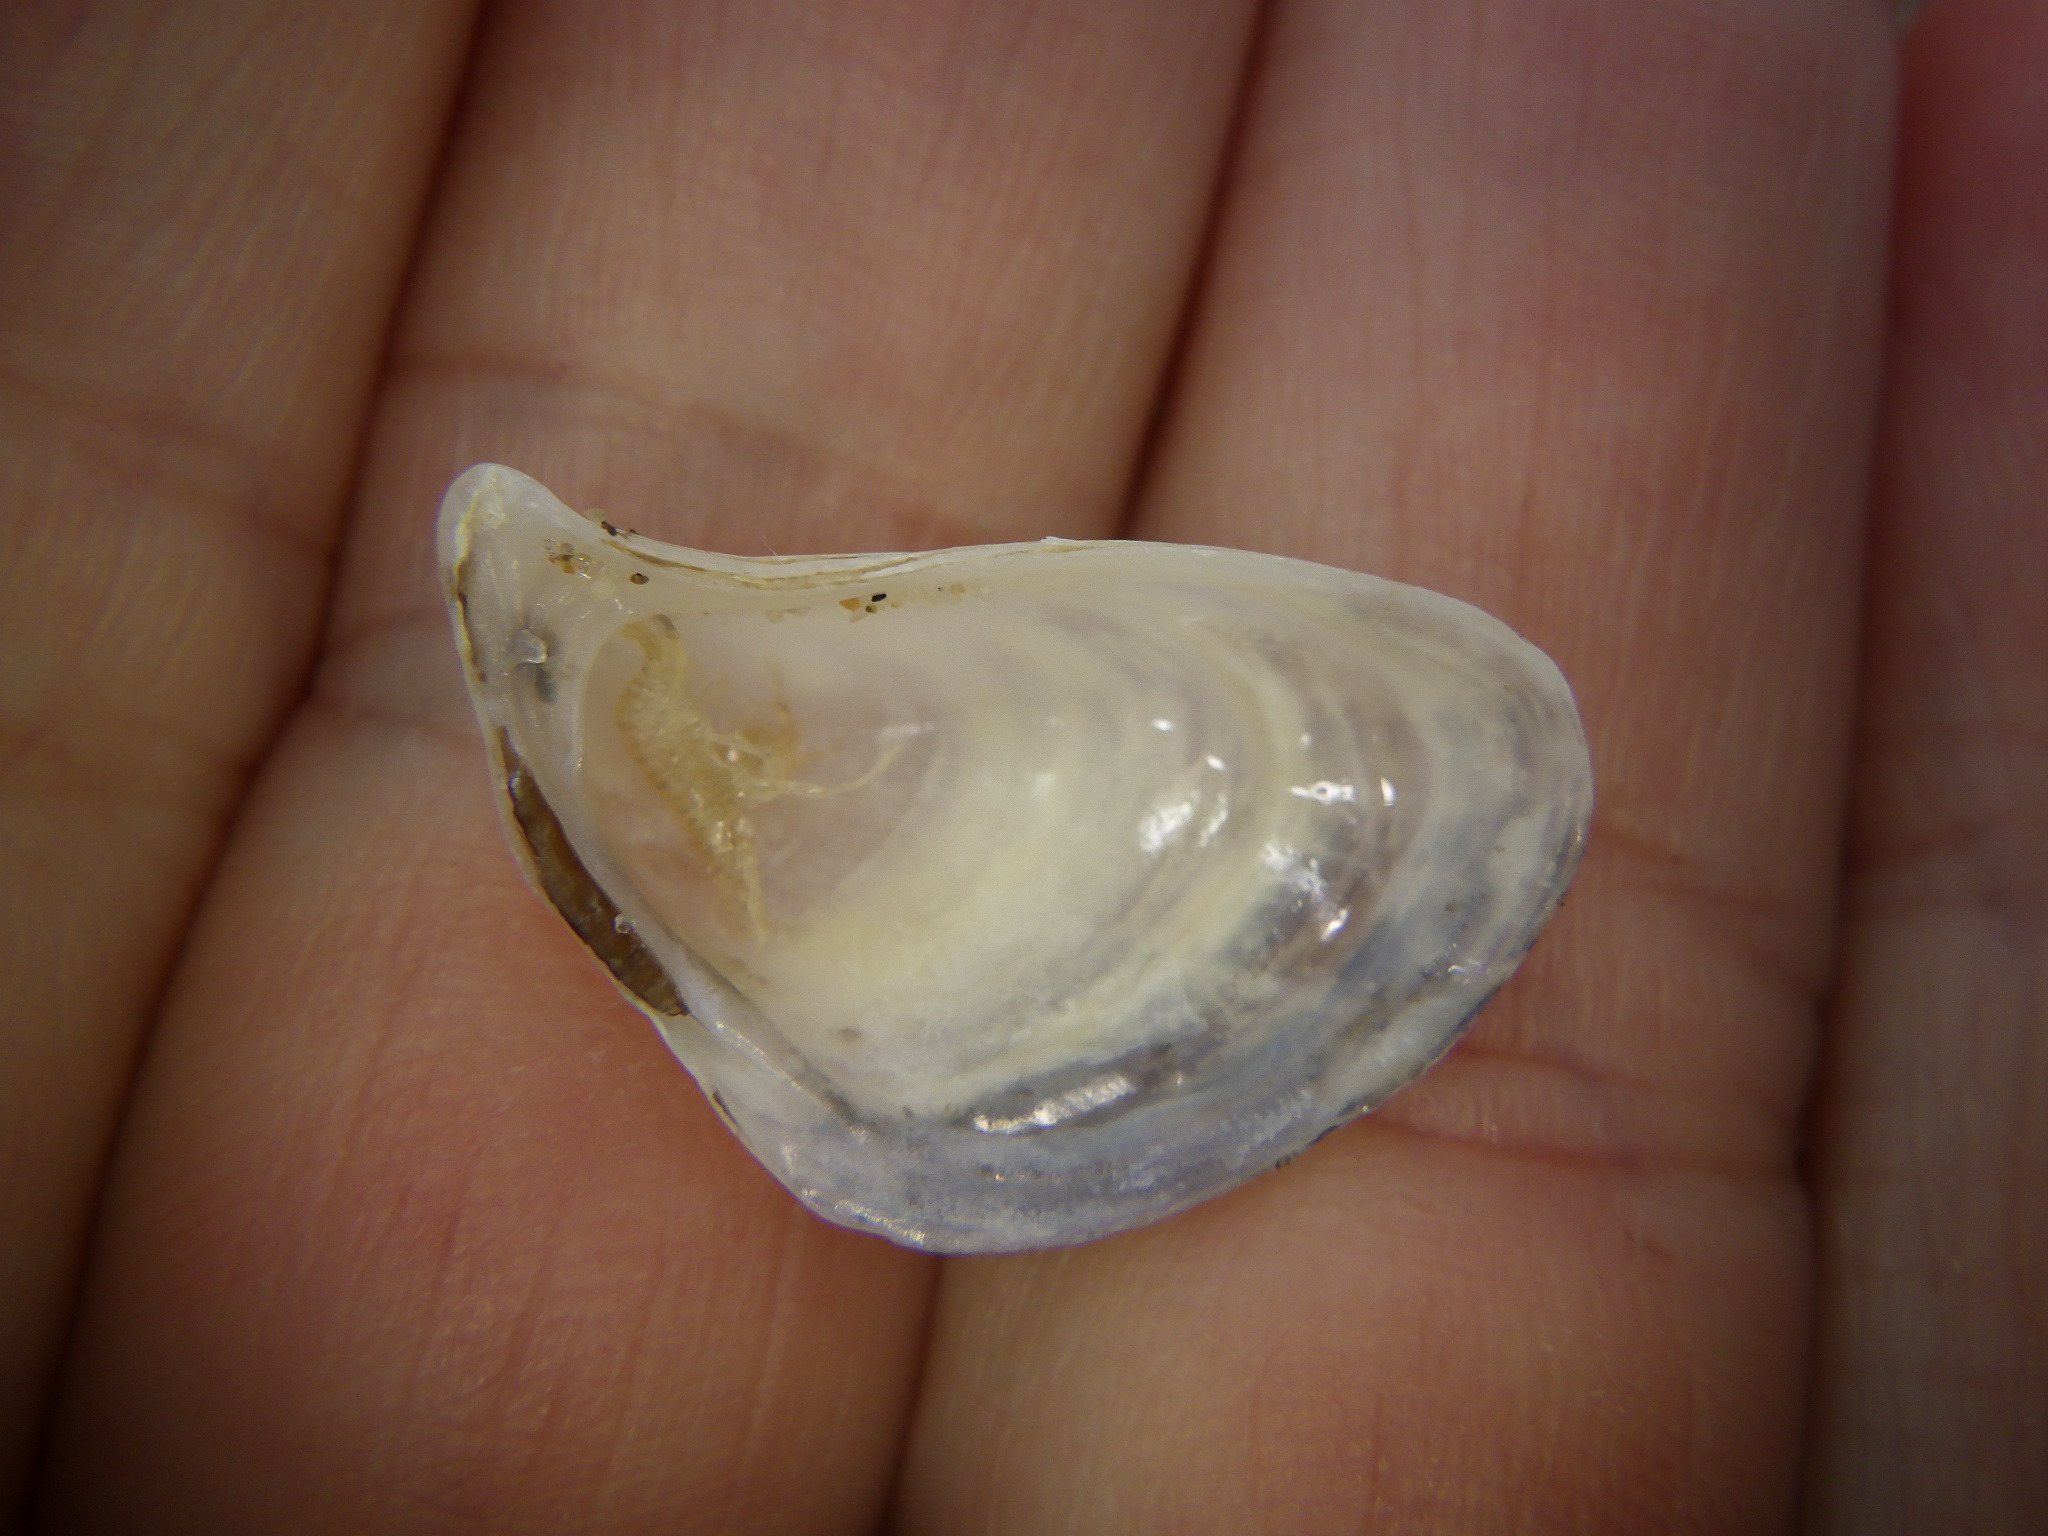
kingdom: Animalia
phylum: Mollusca
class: Bivalvia
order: Myida
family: Dreissenidae
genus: Dreissena
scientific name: Dreissena bugensis
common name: Quagga mussel
